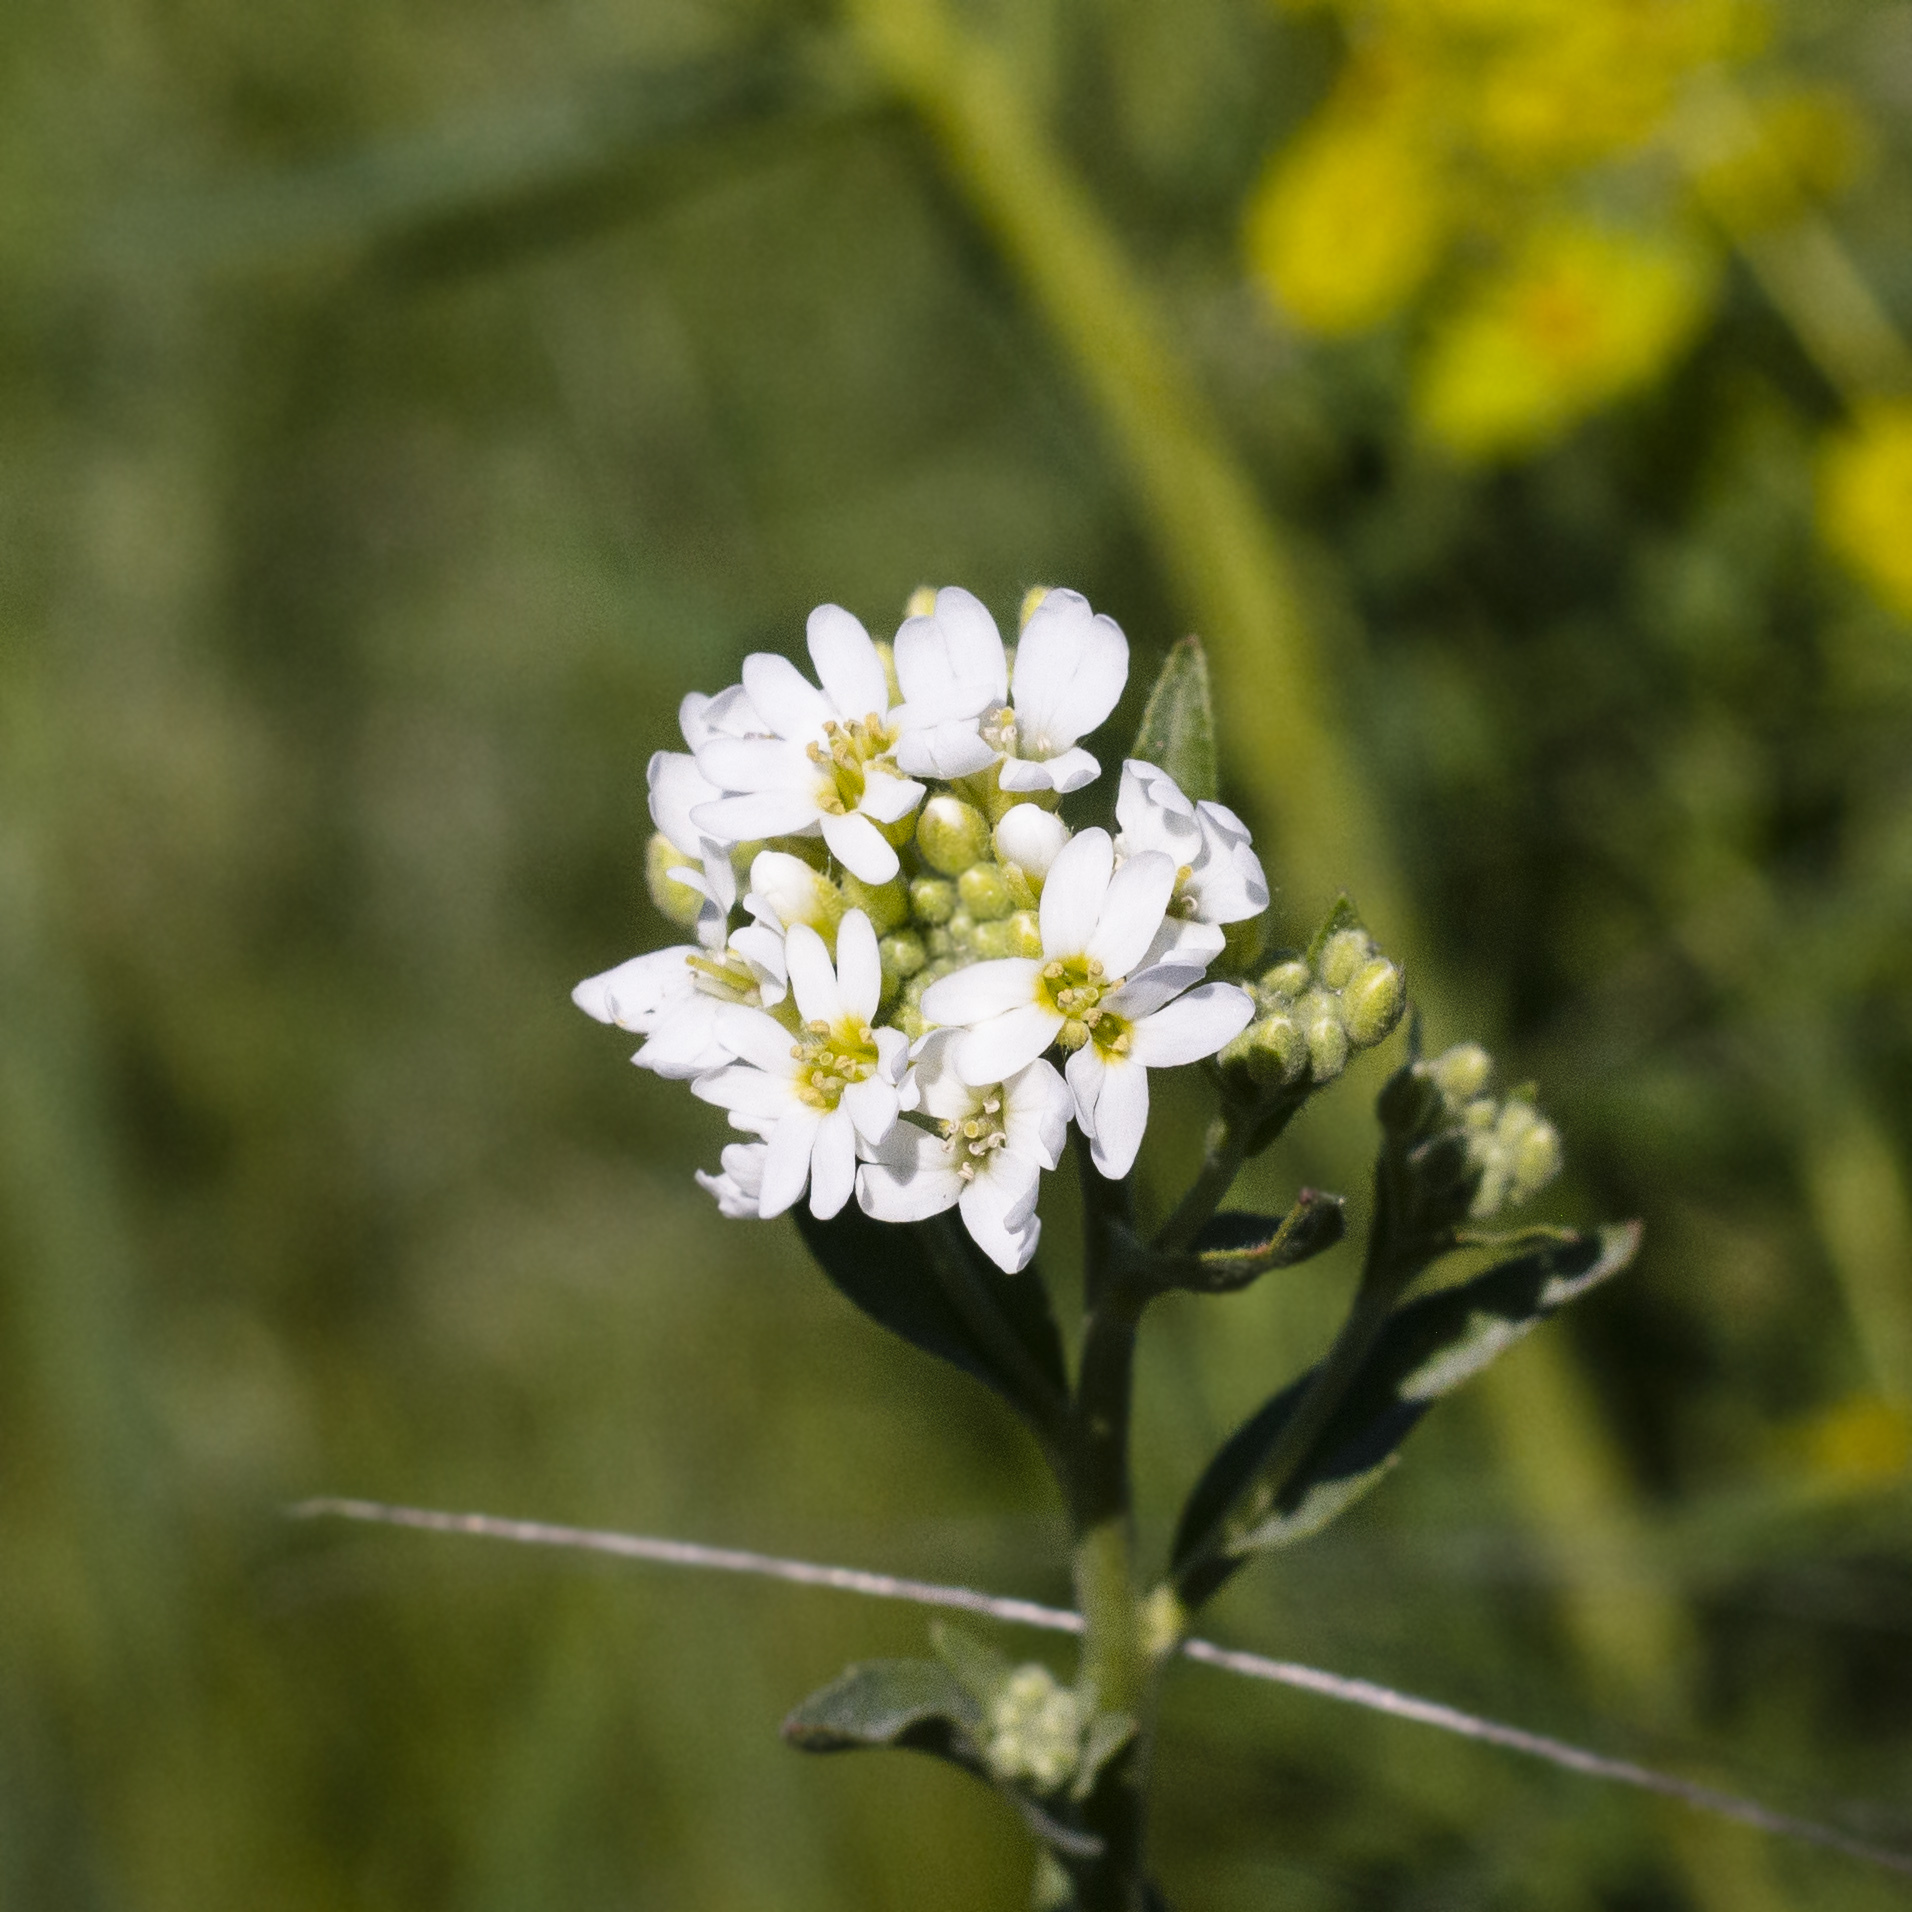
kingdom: Plantae
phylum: Tracheophyta
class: Magnoliopsida
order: Brassicales
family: Brassicaceae
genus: Berteroa
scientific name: Berteroa incana
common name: Hoary alison
